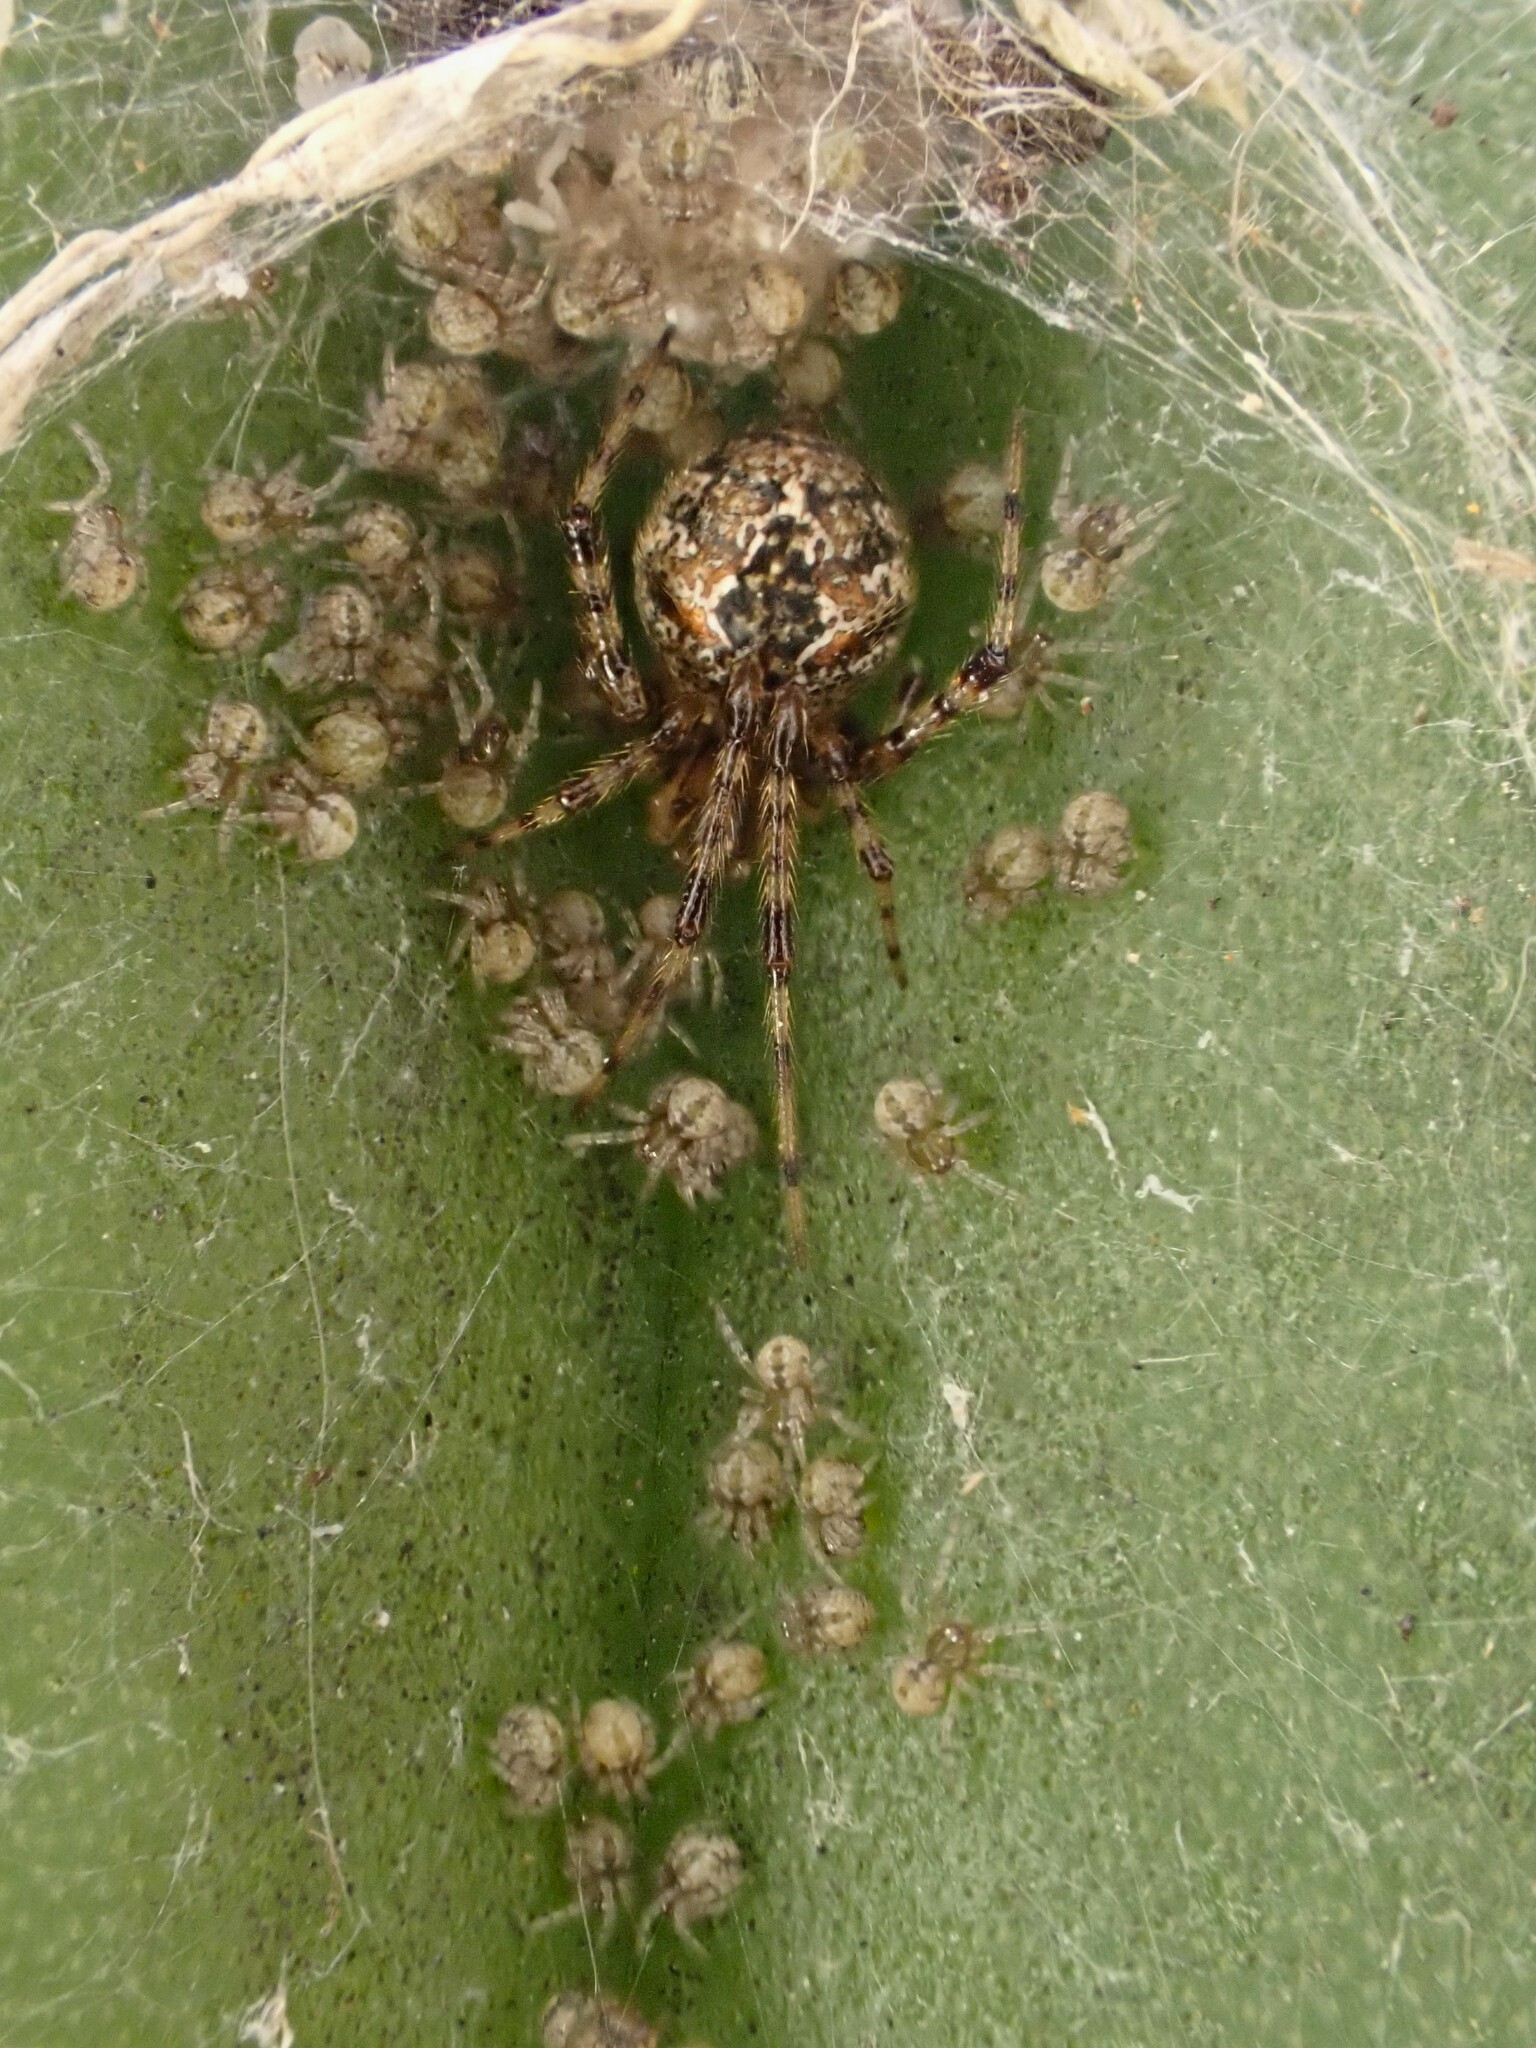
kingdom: Animalia
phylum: Arthropoda
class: Arachnida
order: Araneae
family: Theridiidae
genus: Cryptachaea
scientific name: Cryptachaea veruculata
